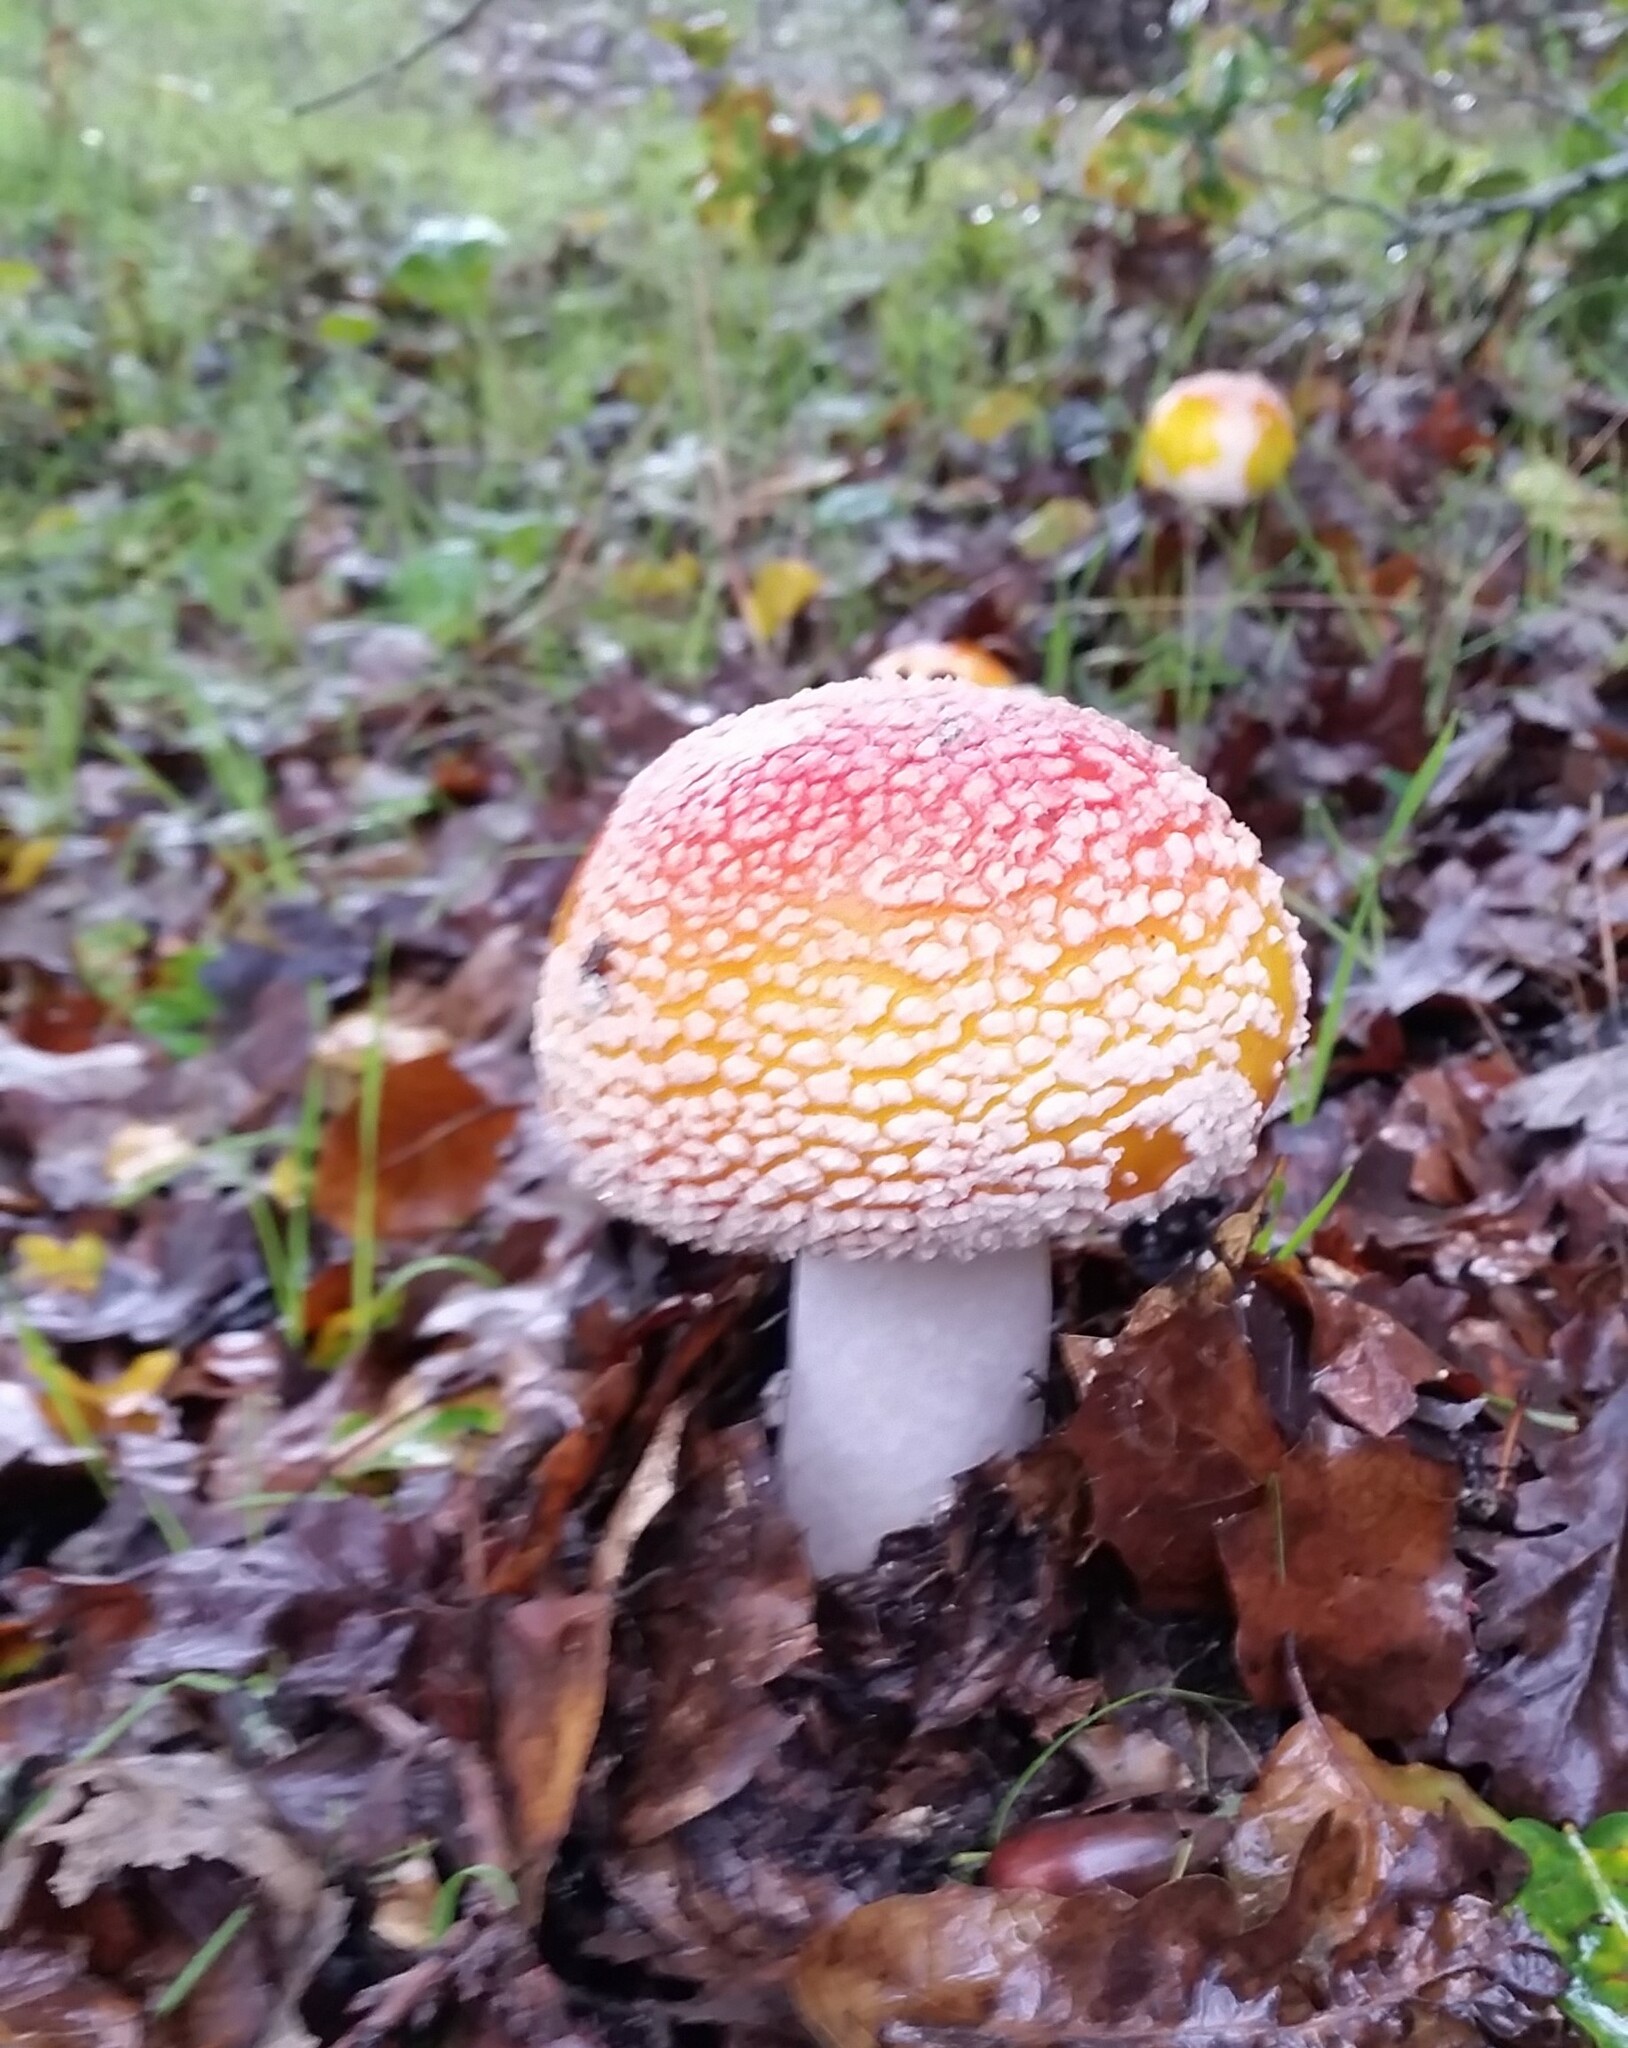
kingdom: Fungi
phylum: Basidiomycota
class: Agaricomycetes
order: Agaricales
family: Amanitaceae
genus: Amanita
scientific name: Amanita muscaria
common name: Fly agaric
